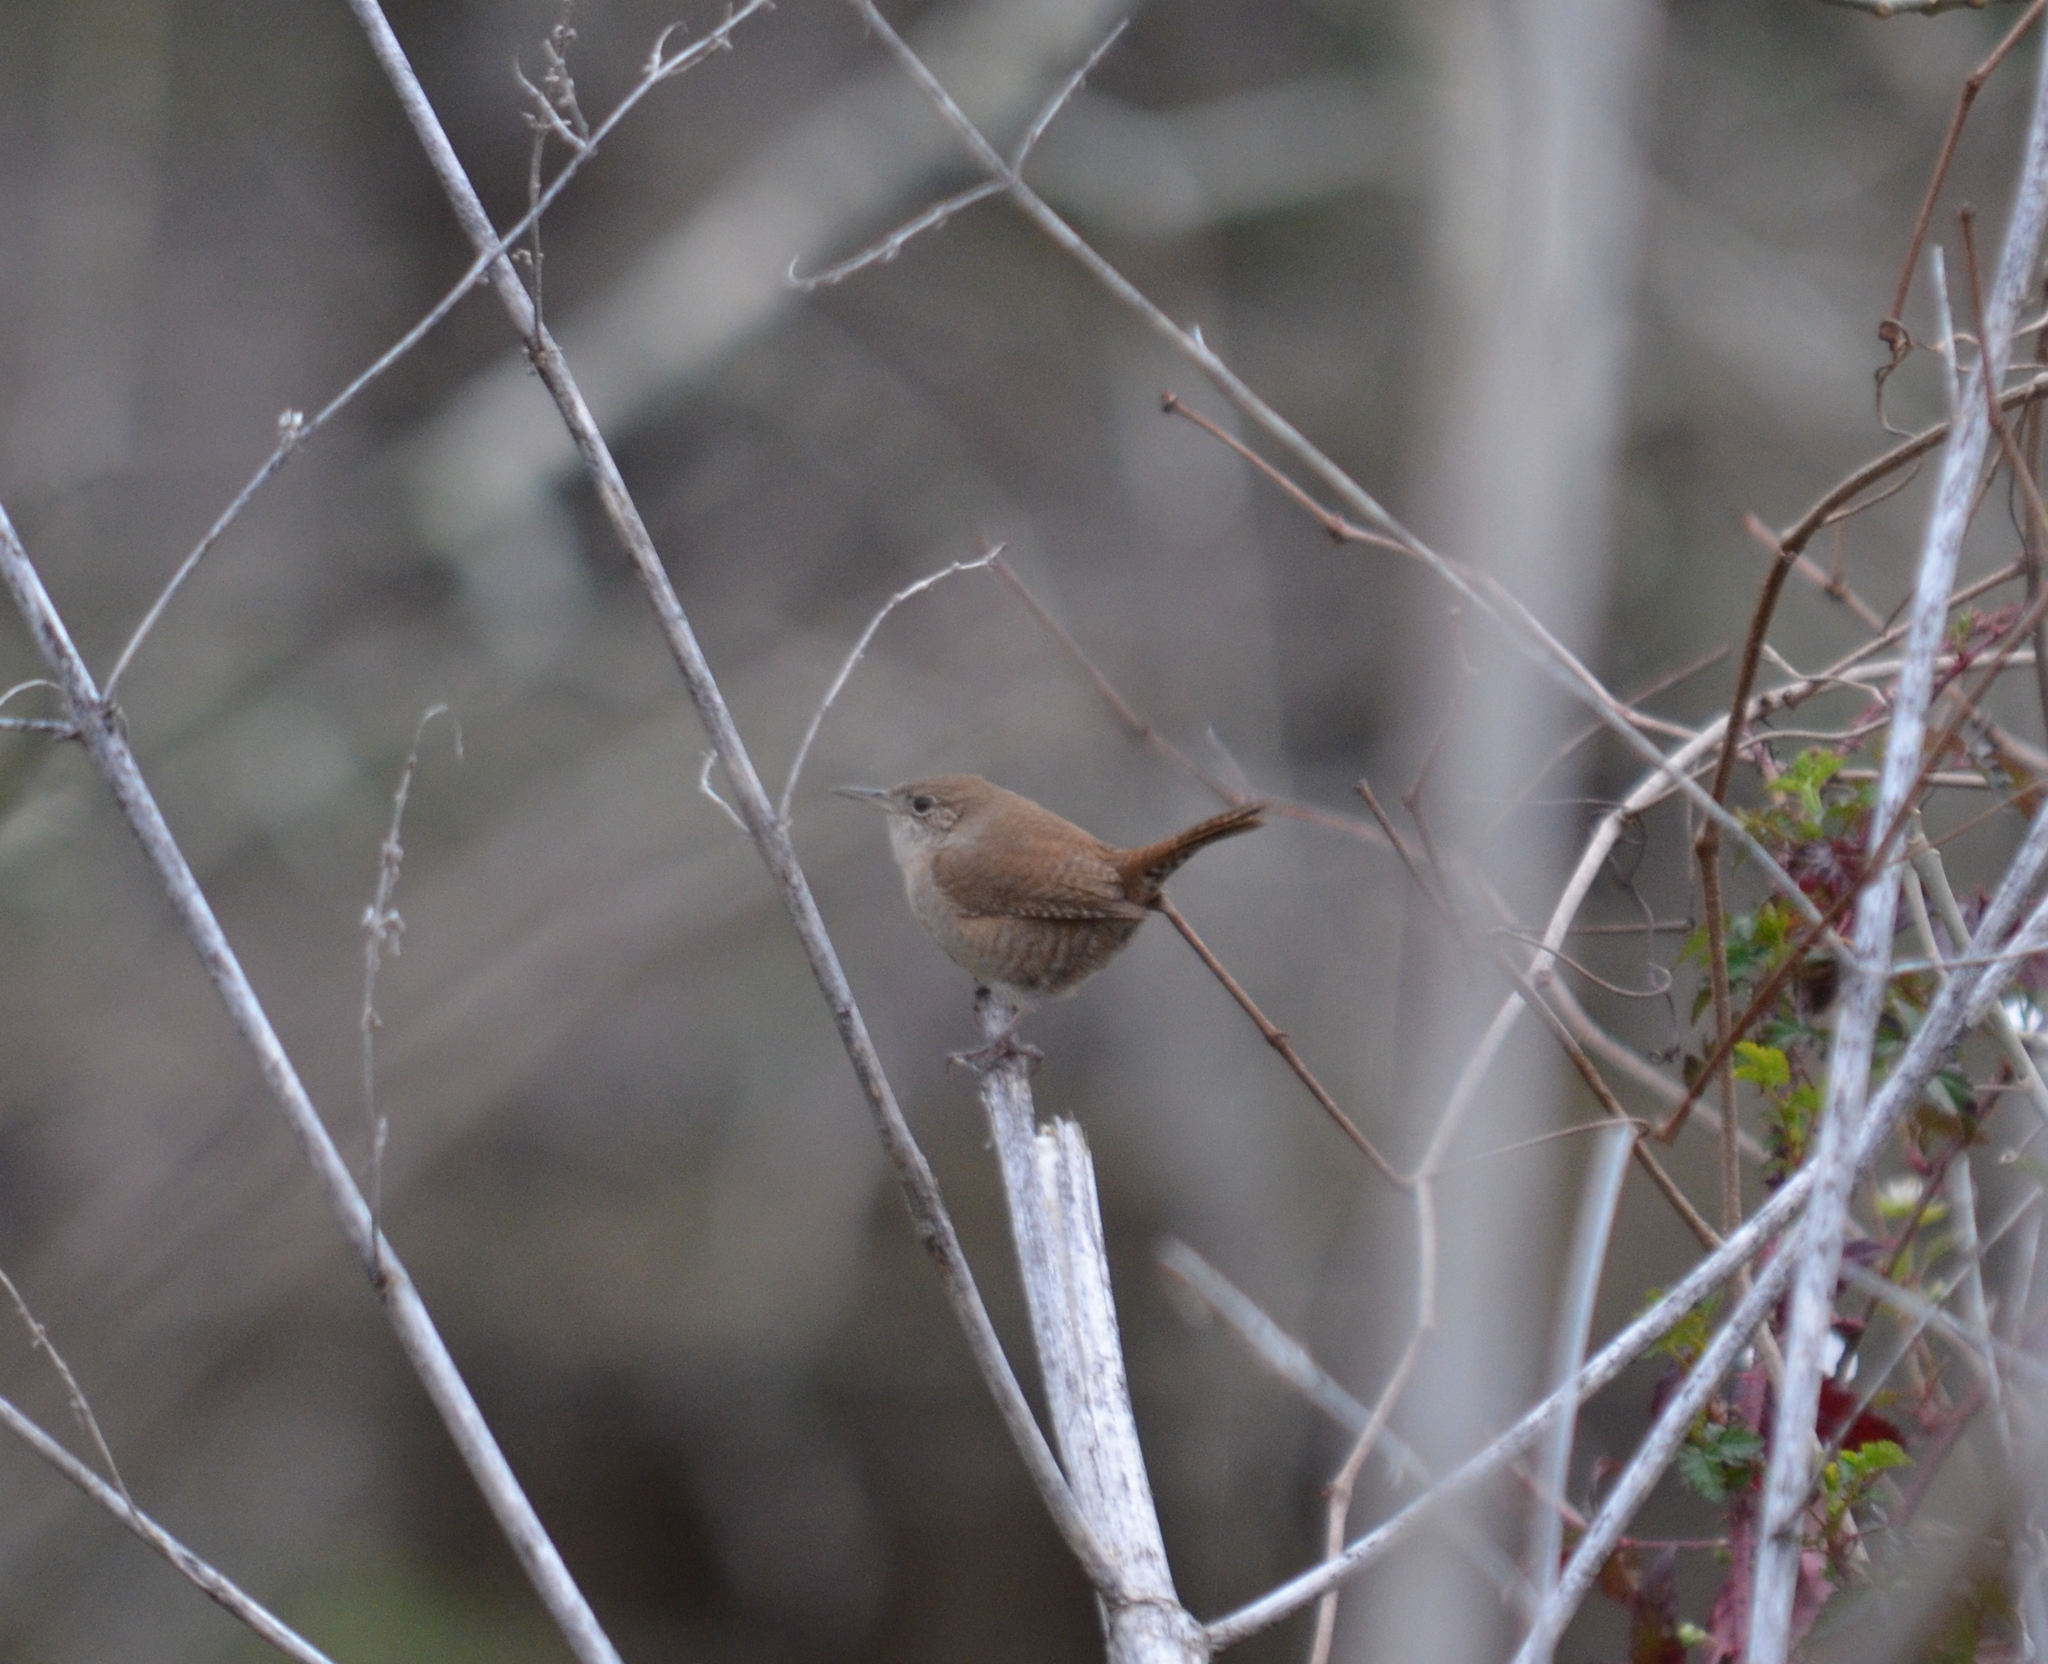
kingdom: Animalia
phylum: Chordata
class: Aves
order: Passeriformes
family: Troglodytidae
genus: Troglodytes
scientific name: Troglodytes aedon
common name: House wren
